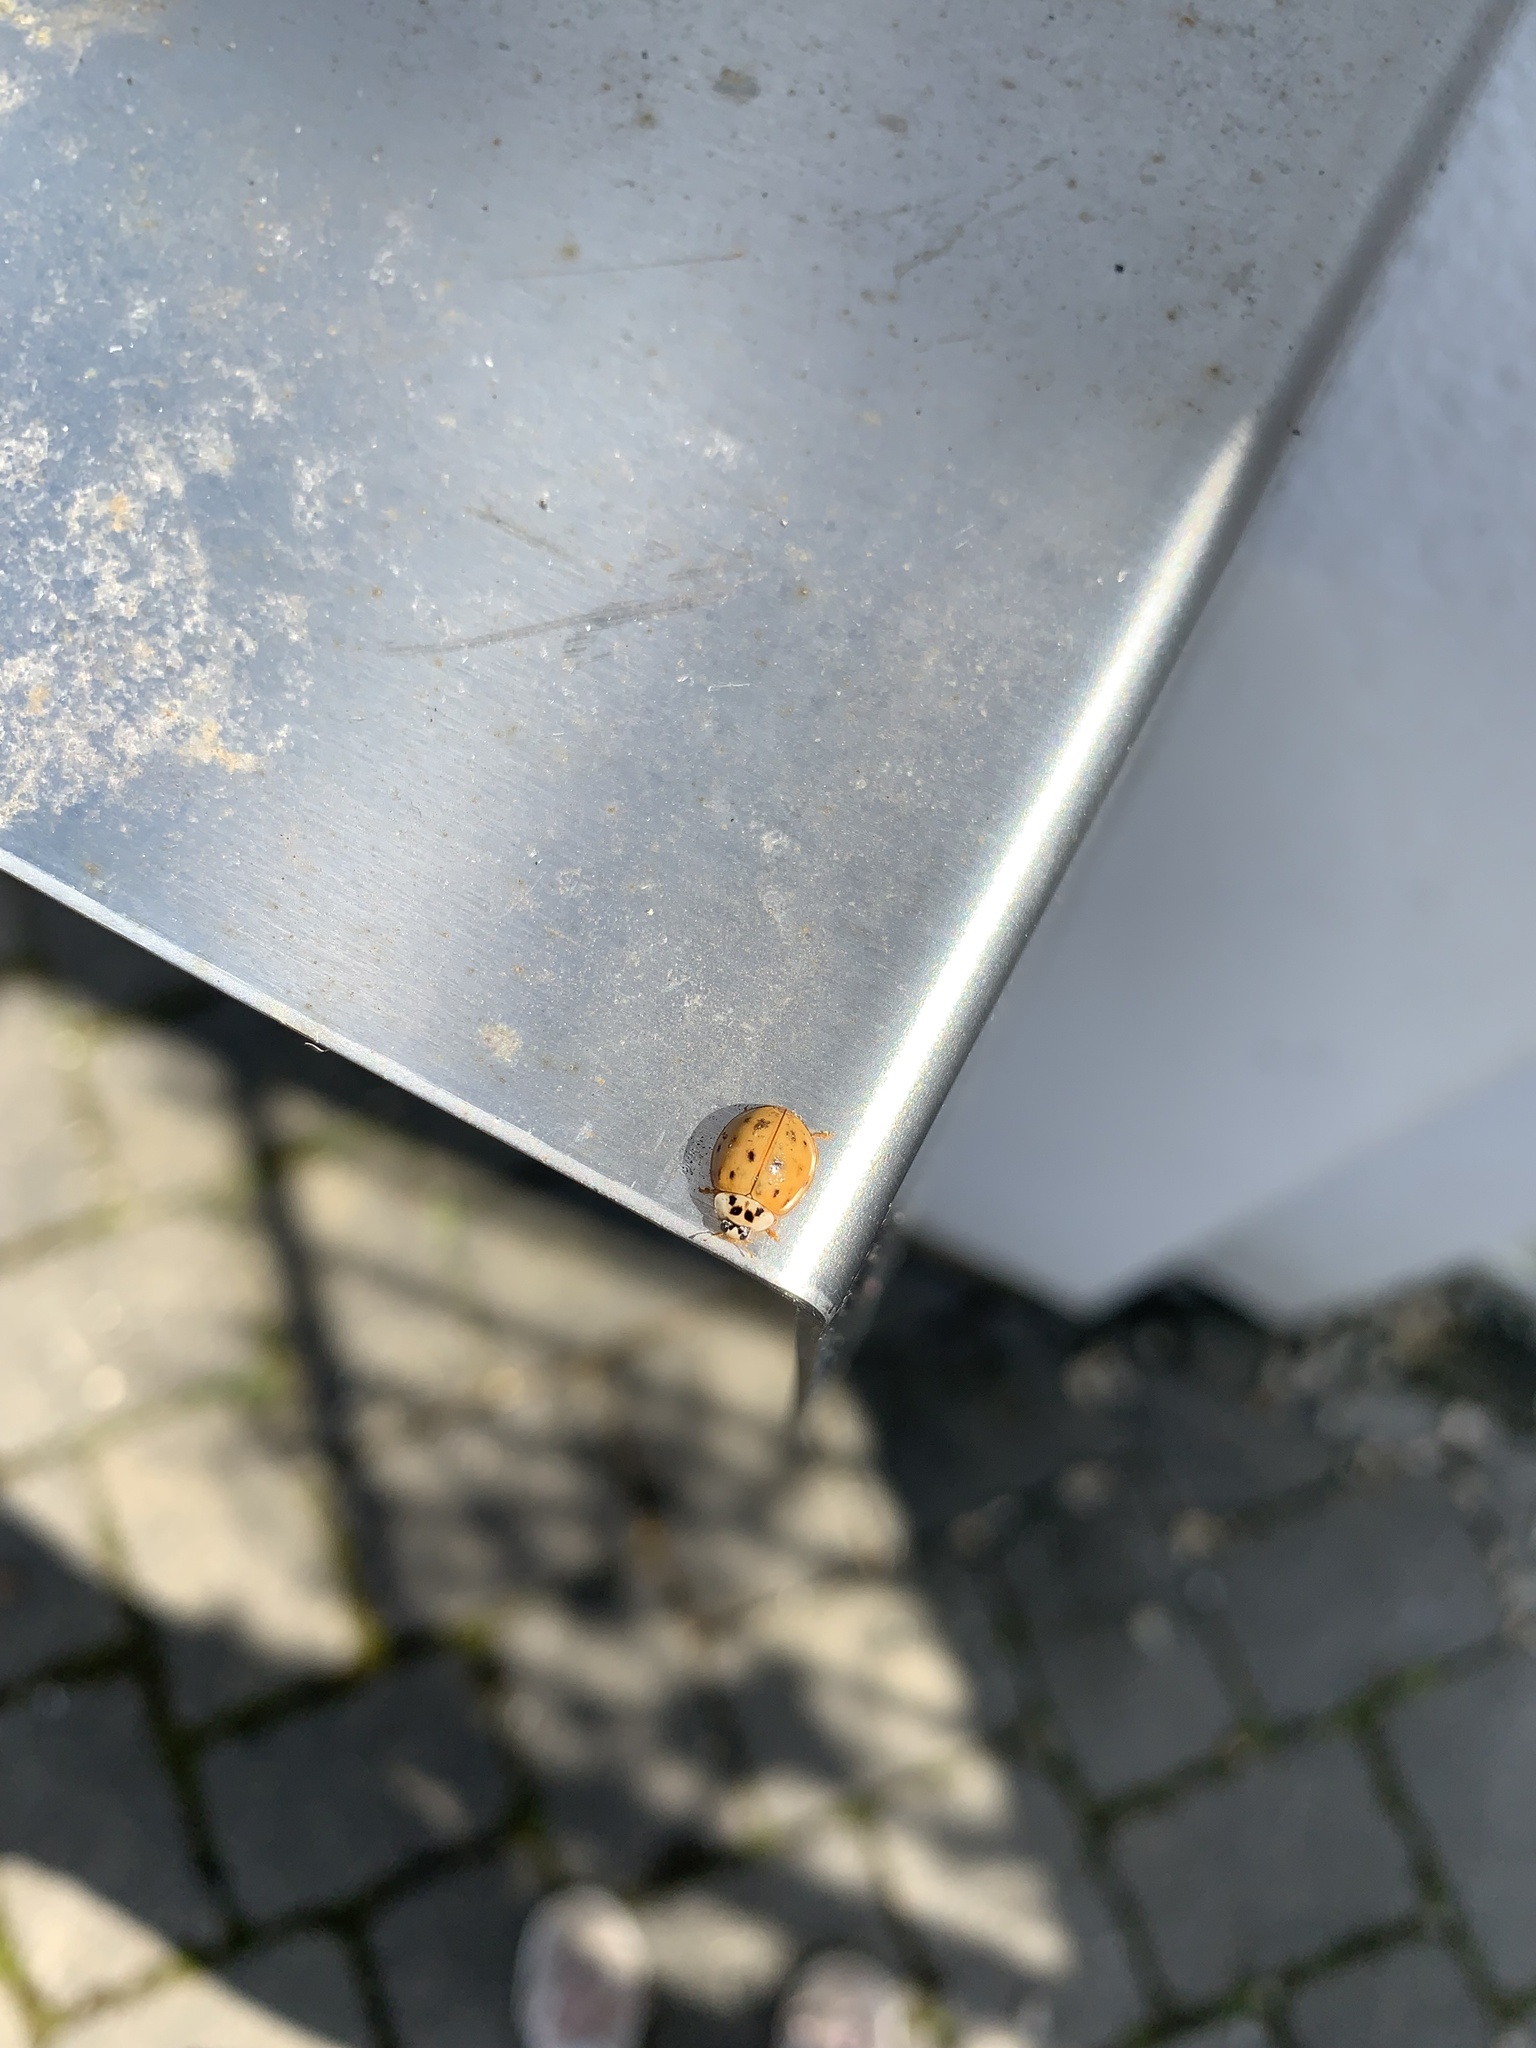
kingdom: Animalia
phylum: Arthropoda
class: Insecta
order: Coleoptera
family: Coccinellidae
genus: Harmonia
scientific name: Harmonia axyridis
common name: Harlequin ladybird
